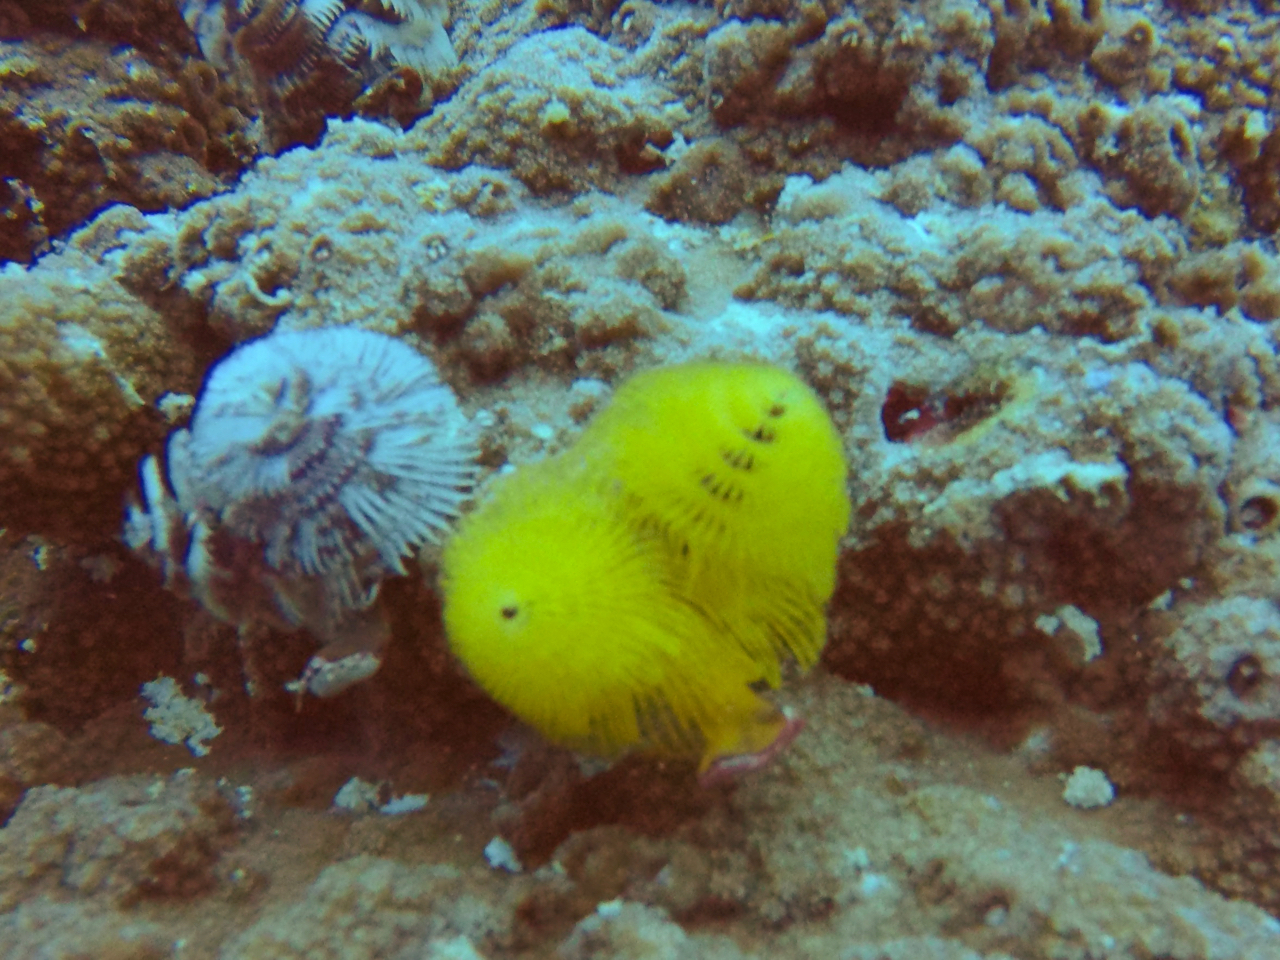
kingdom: Animalia
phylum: Annelida
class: Polychaeta
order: Sabellida
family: Serpulidae
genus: Spirobranchus
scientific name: Spirobranchus
